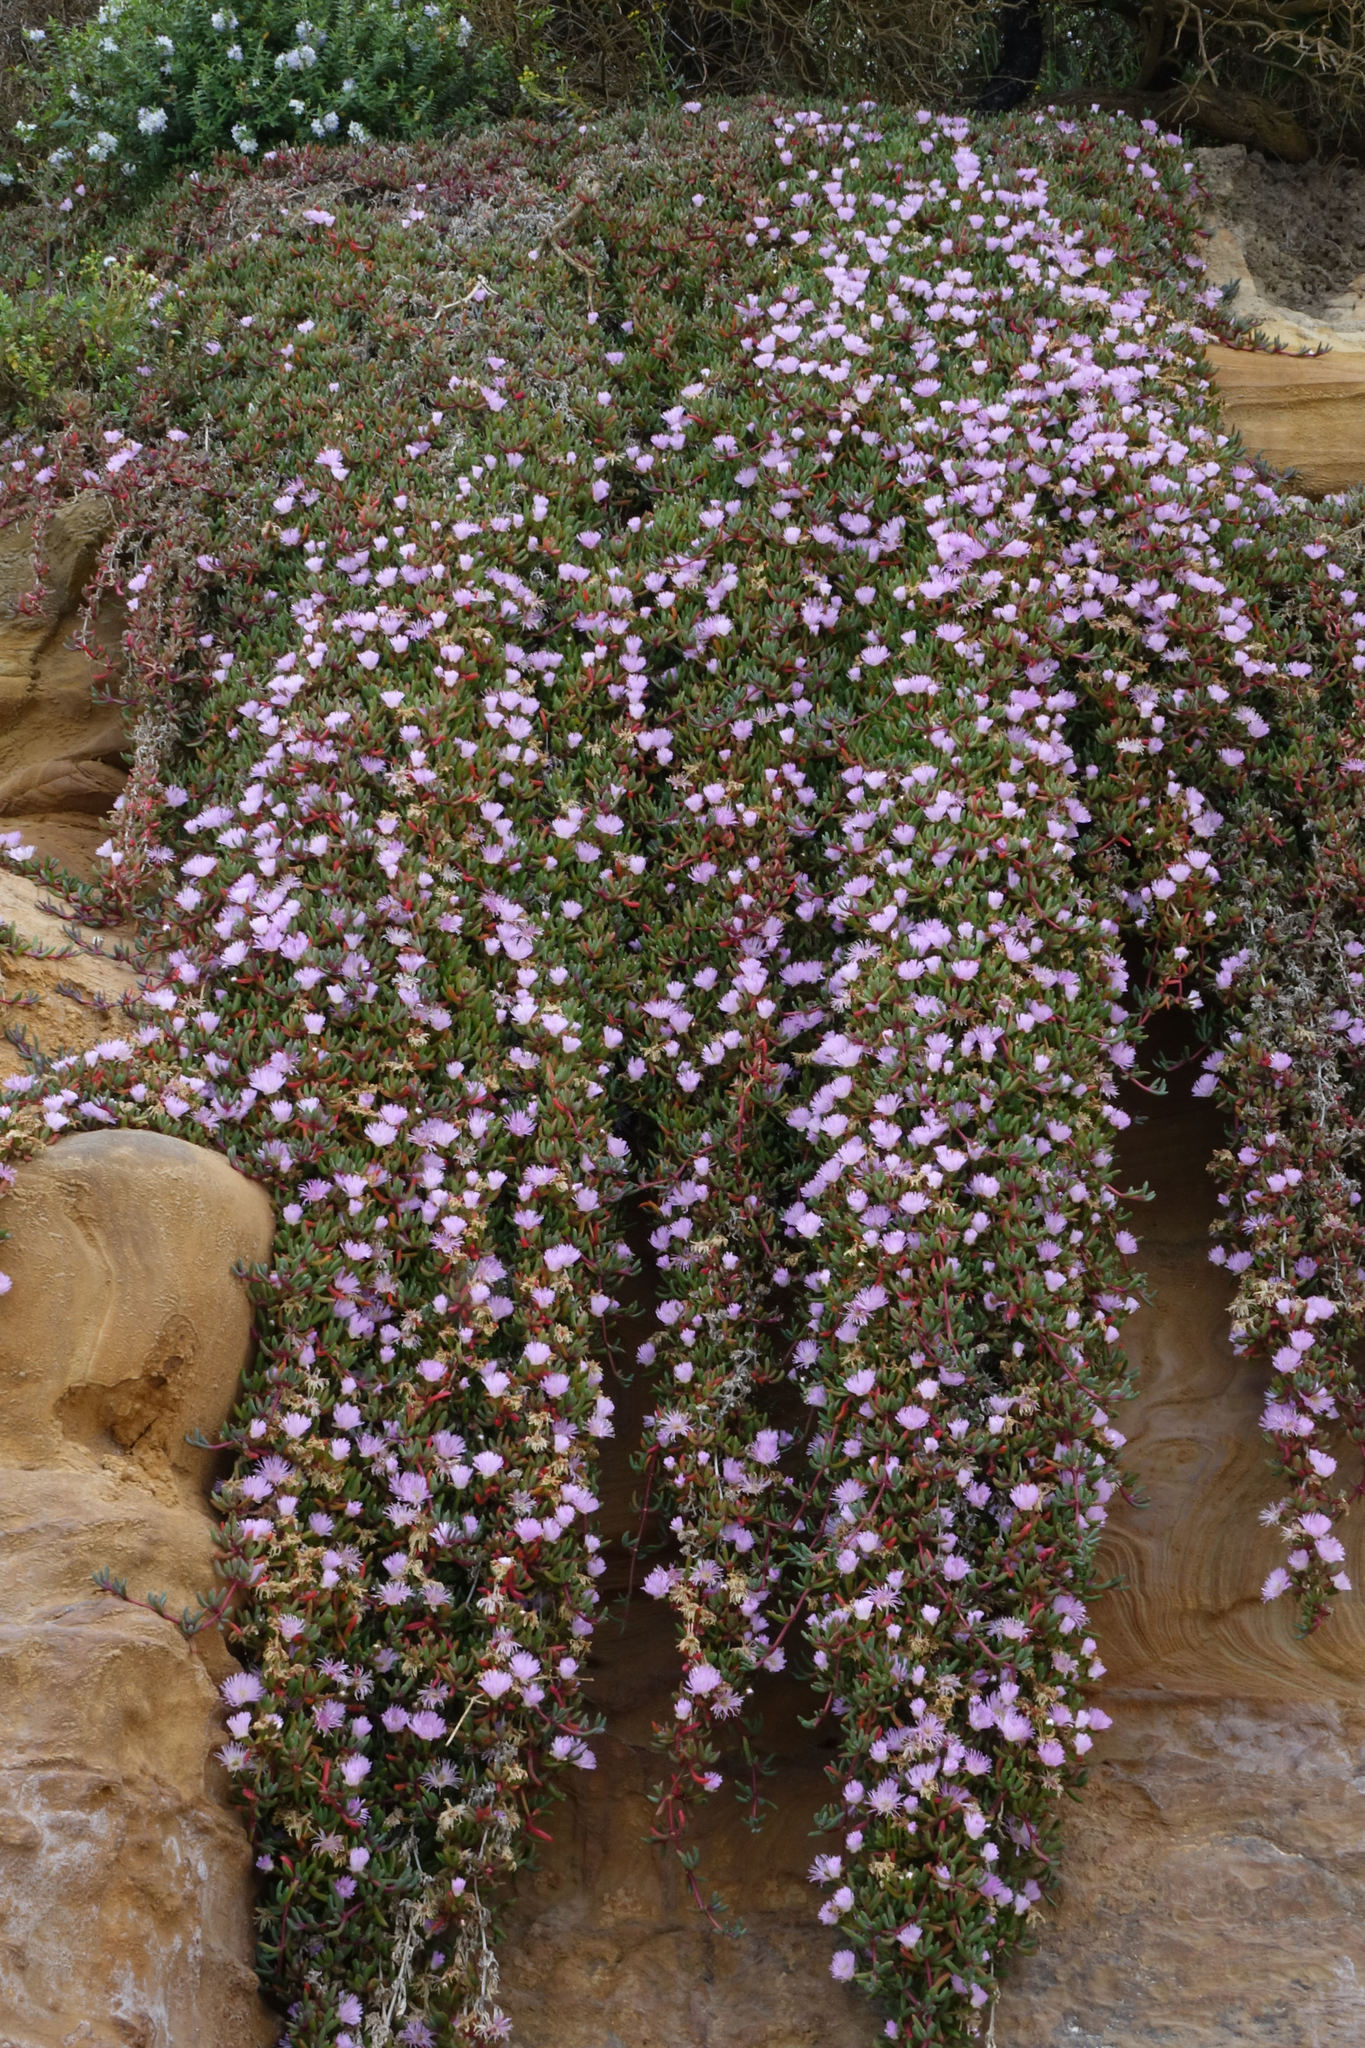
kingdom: Plantae
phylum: Tracheophyta
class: Magnoliopsida
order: Caryophyllales
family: Aizoaceae
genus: Disphyma
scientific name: Disphyma australe
